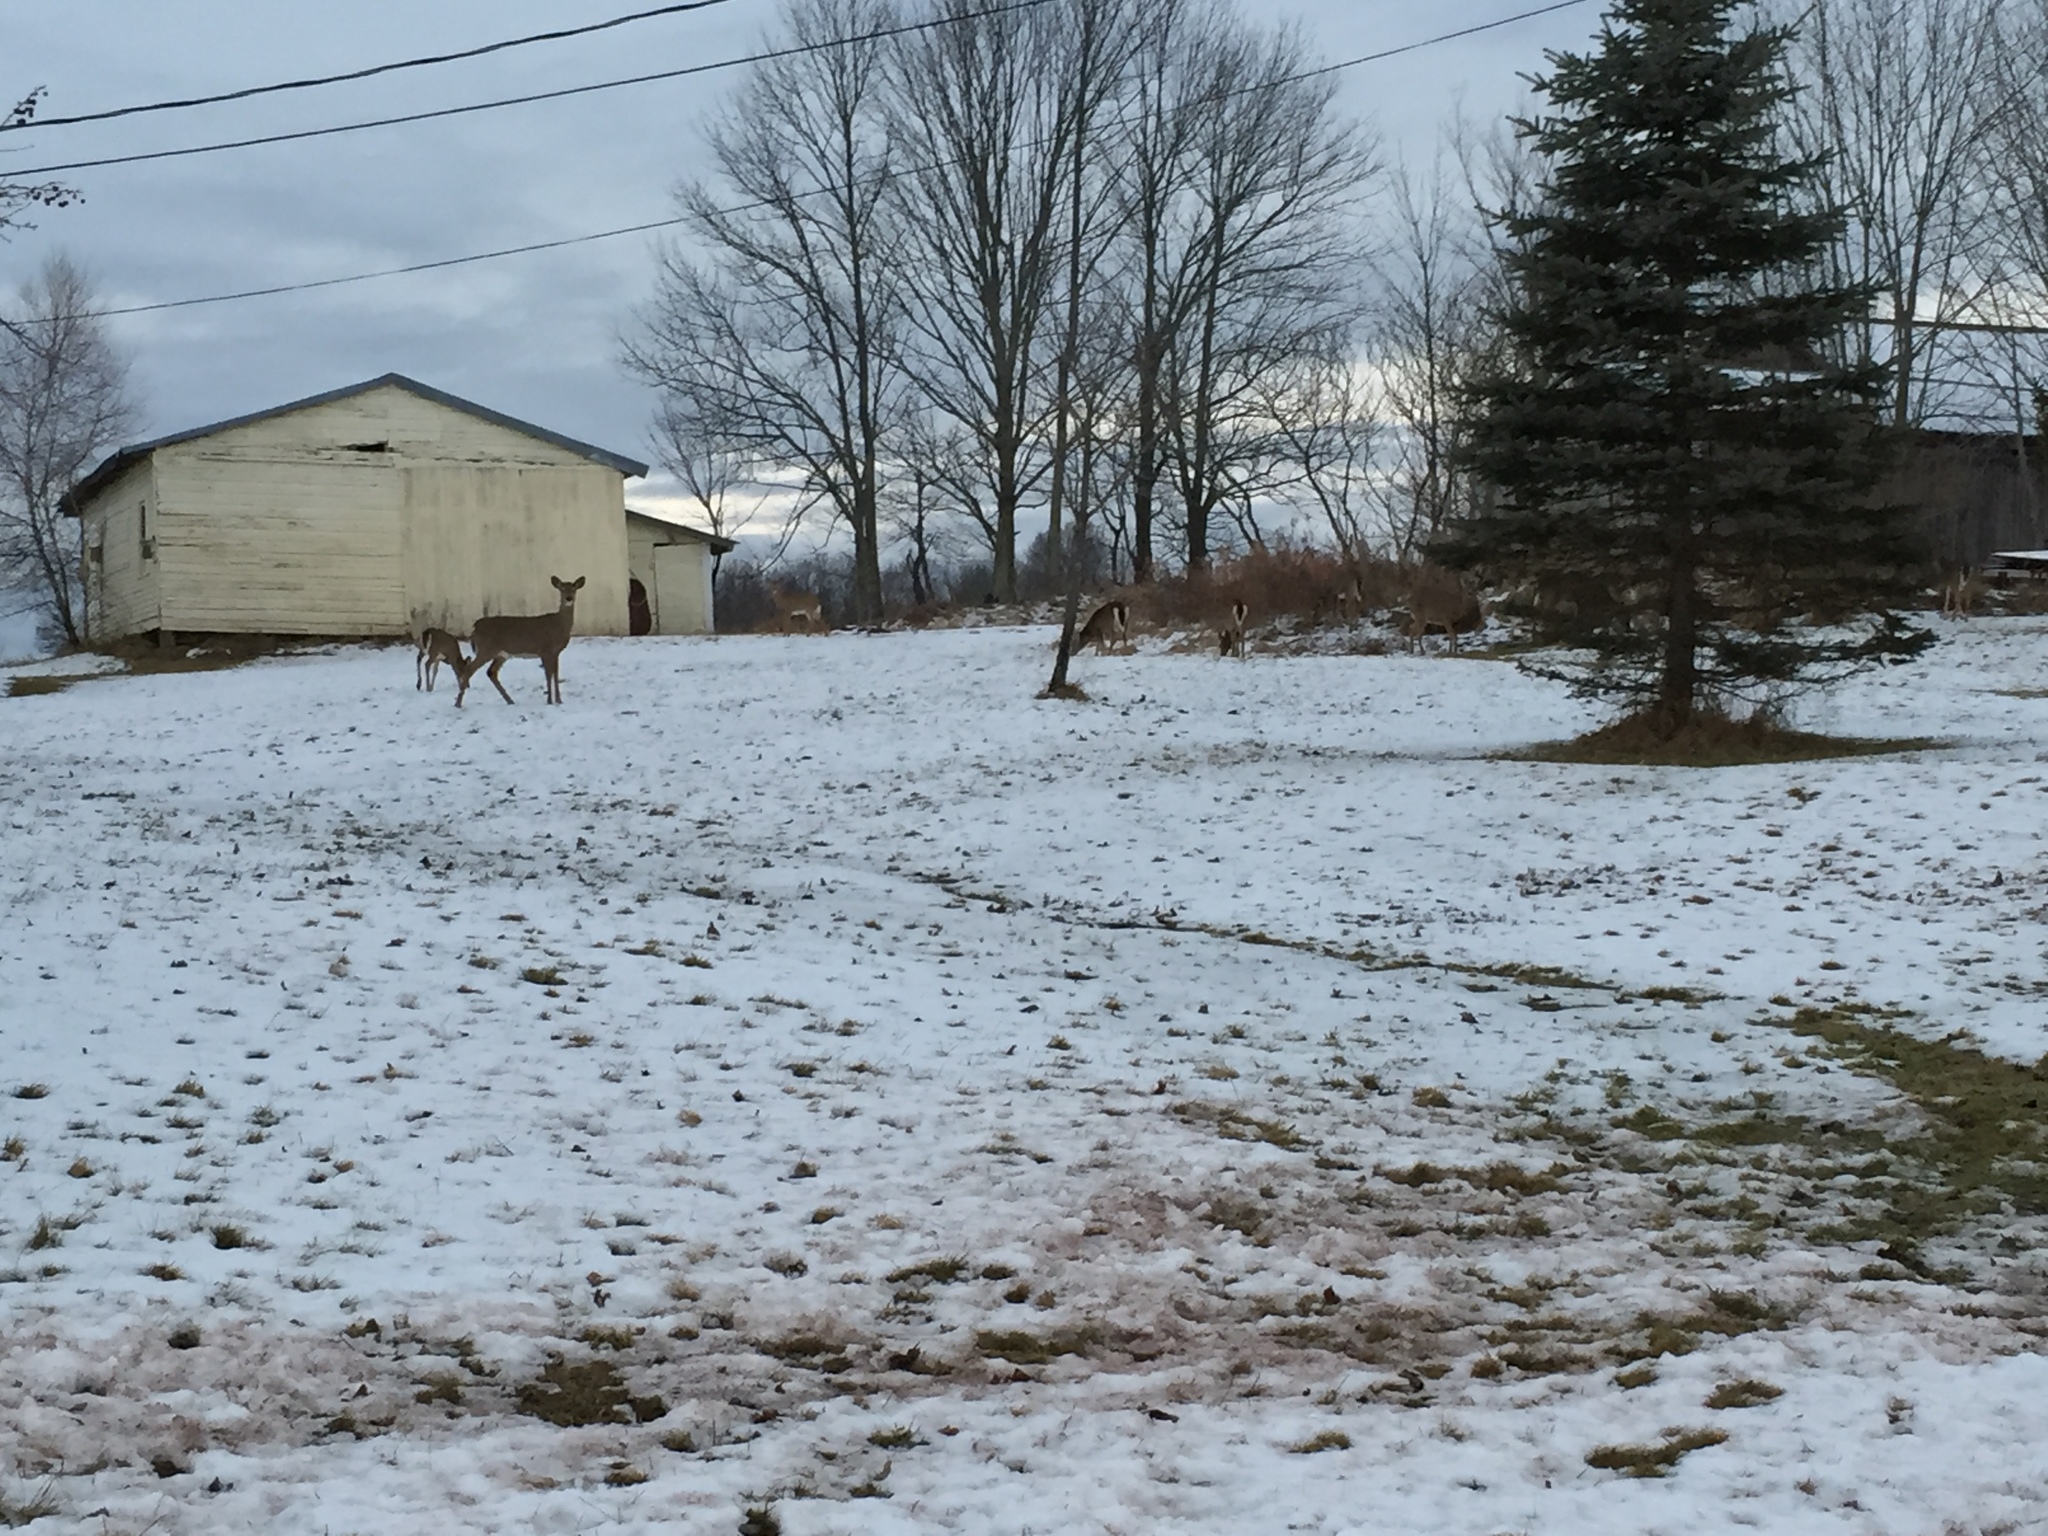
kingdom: Animalia
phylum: Chordata
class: Mammalia
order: Artiodactyla
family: Cervidae
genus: Odocoileus
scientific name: Odocoileus virginianus
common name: White-tailed deer
